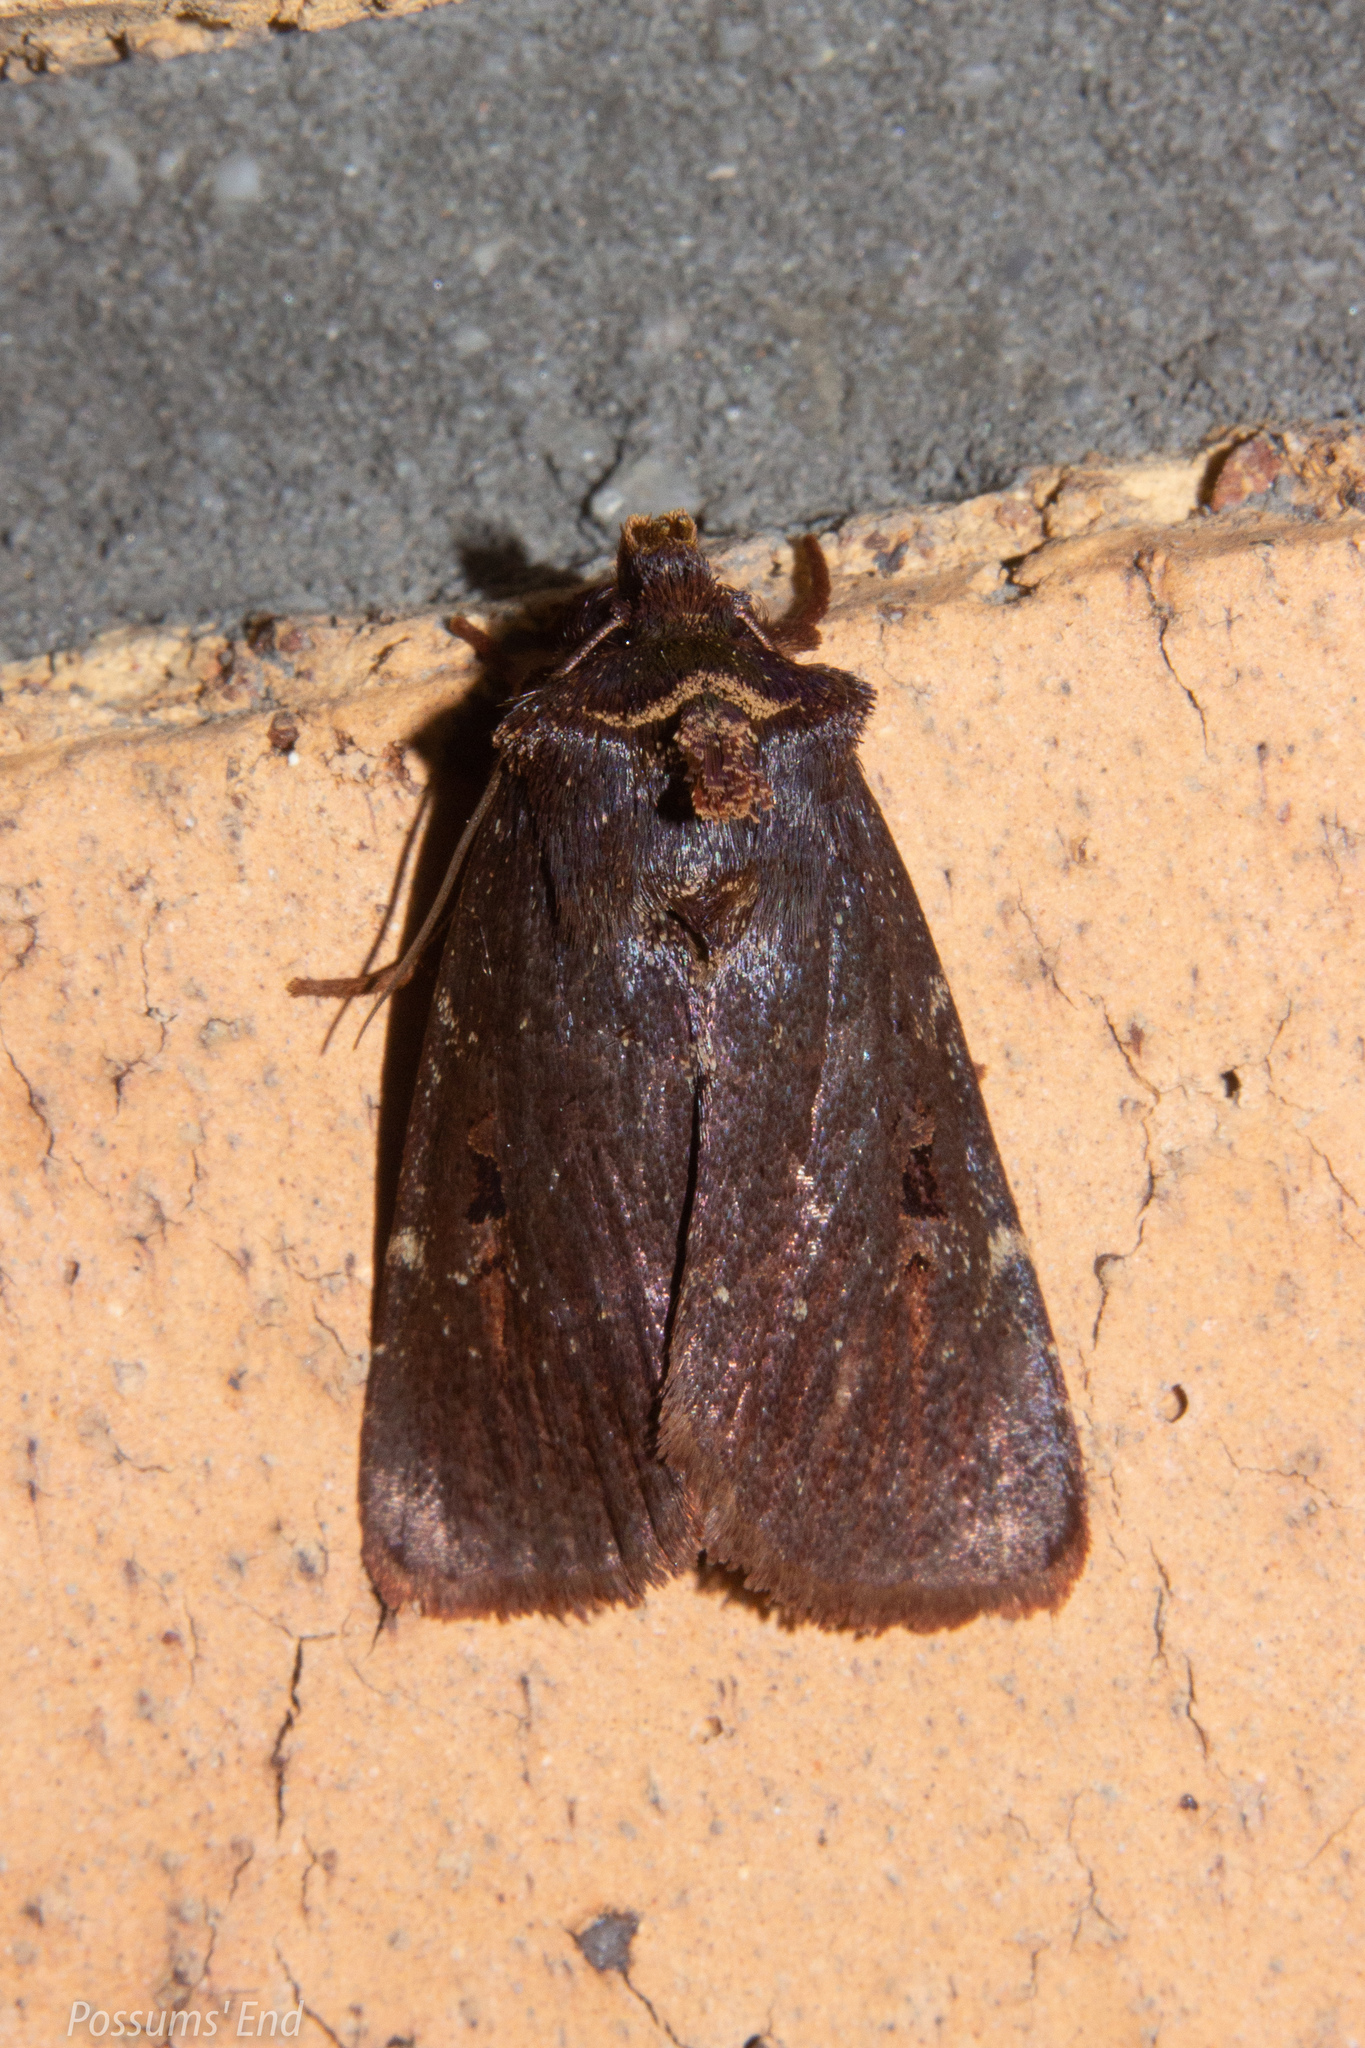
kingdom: Animalia
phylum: Arthropoda
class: Insecta
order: Lepidoptera
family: Noctuidae
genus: Austramathes
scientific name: Austramathes purpurea
